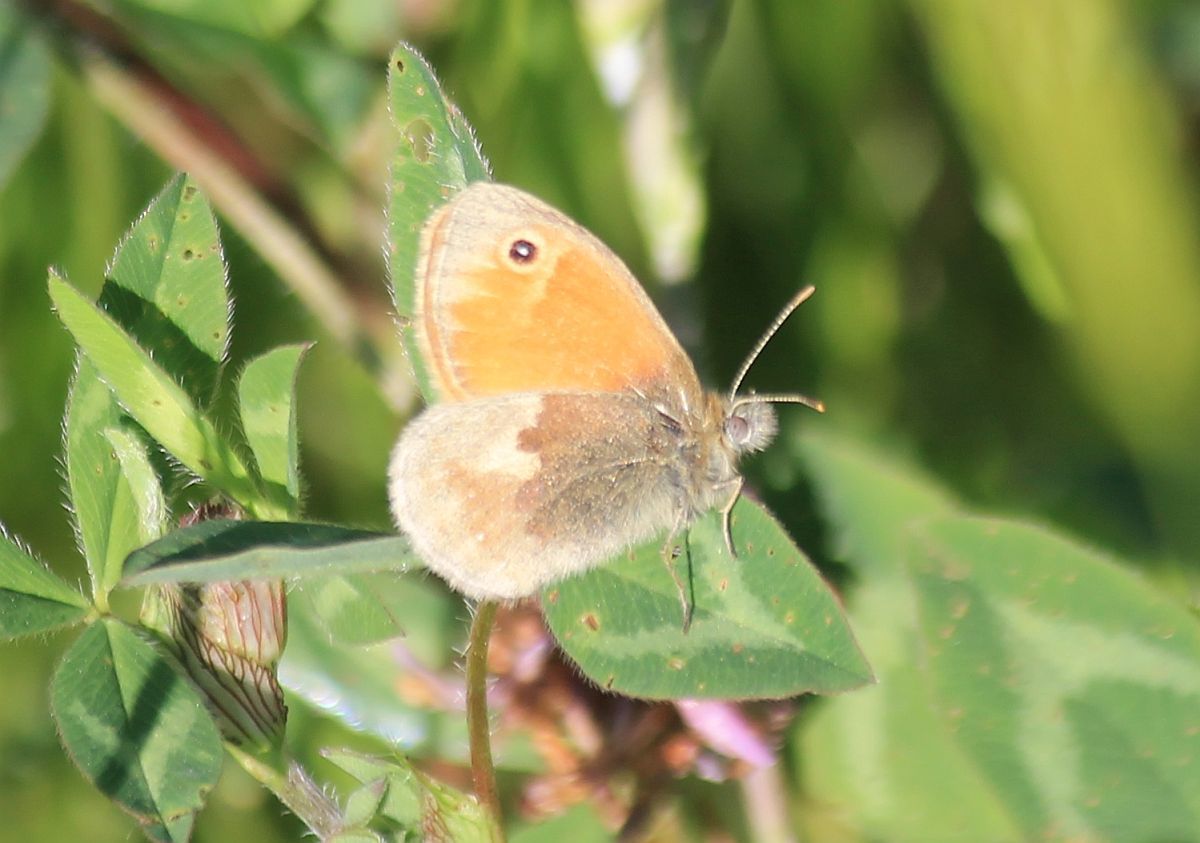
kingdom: Animalia
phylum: Arthropoda
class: Insecta
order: Lepidoptera
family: Nymphalidae
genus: Coenonympha
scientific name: Coenonympha pamphilus
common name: Small heath
